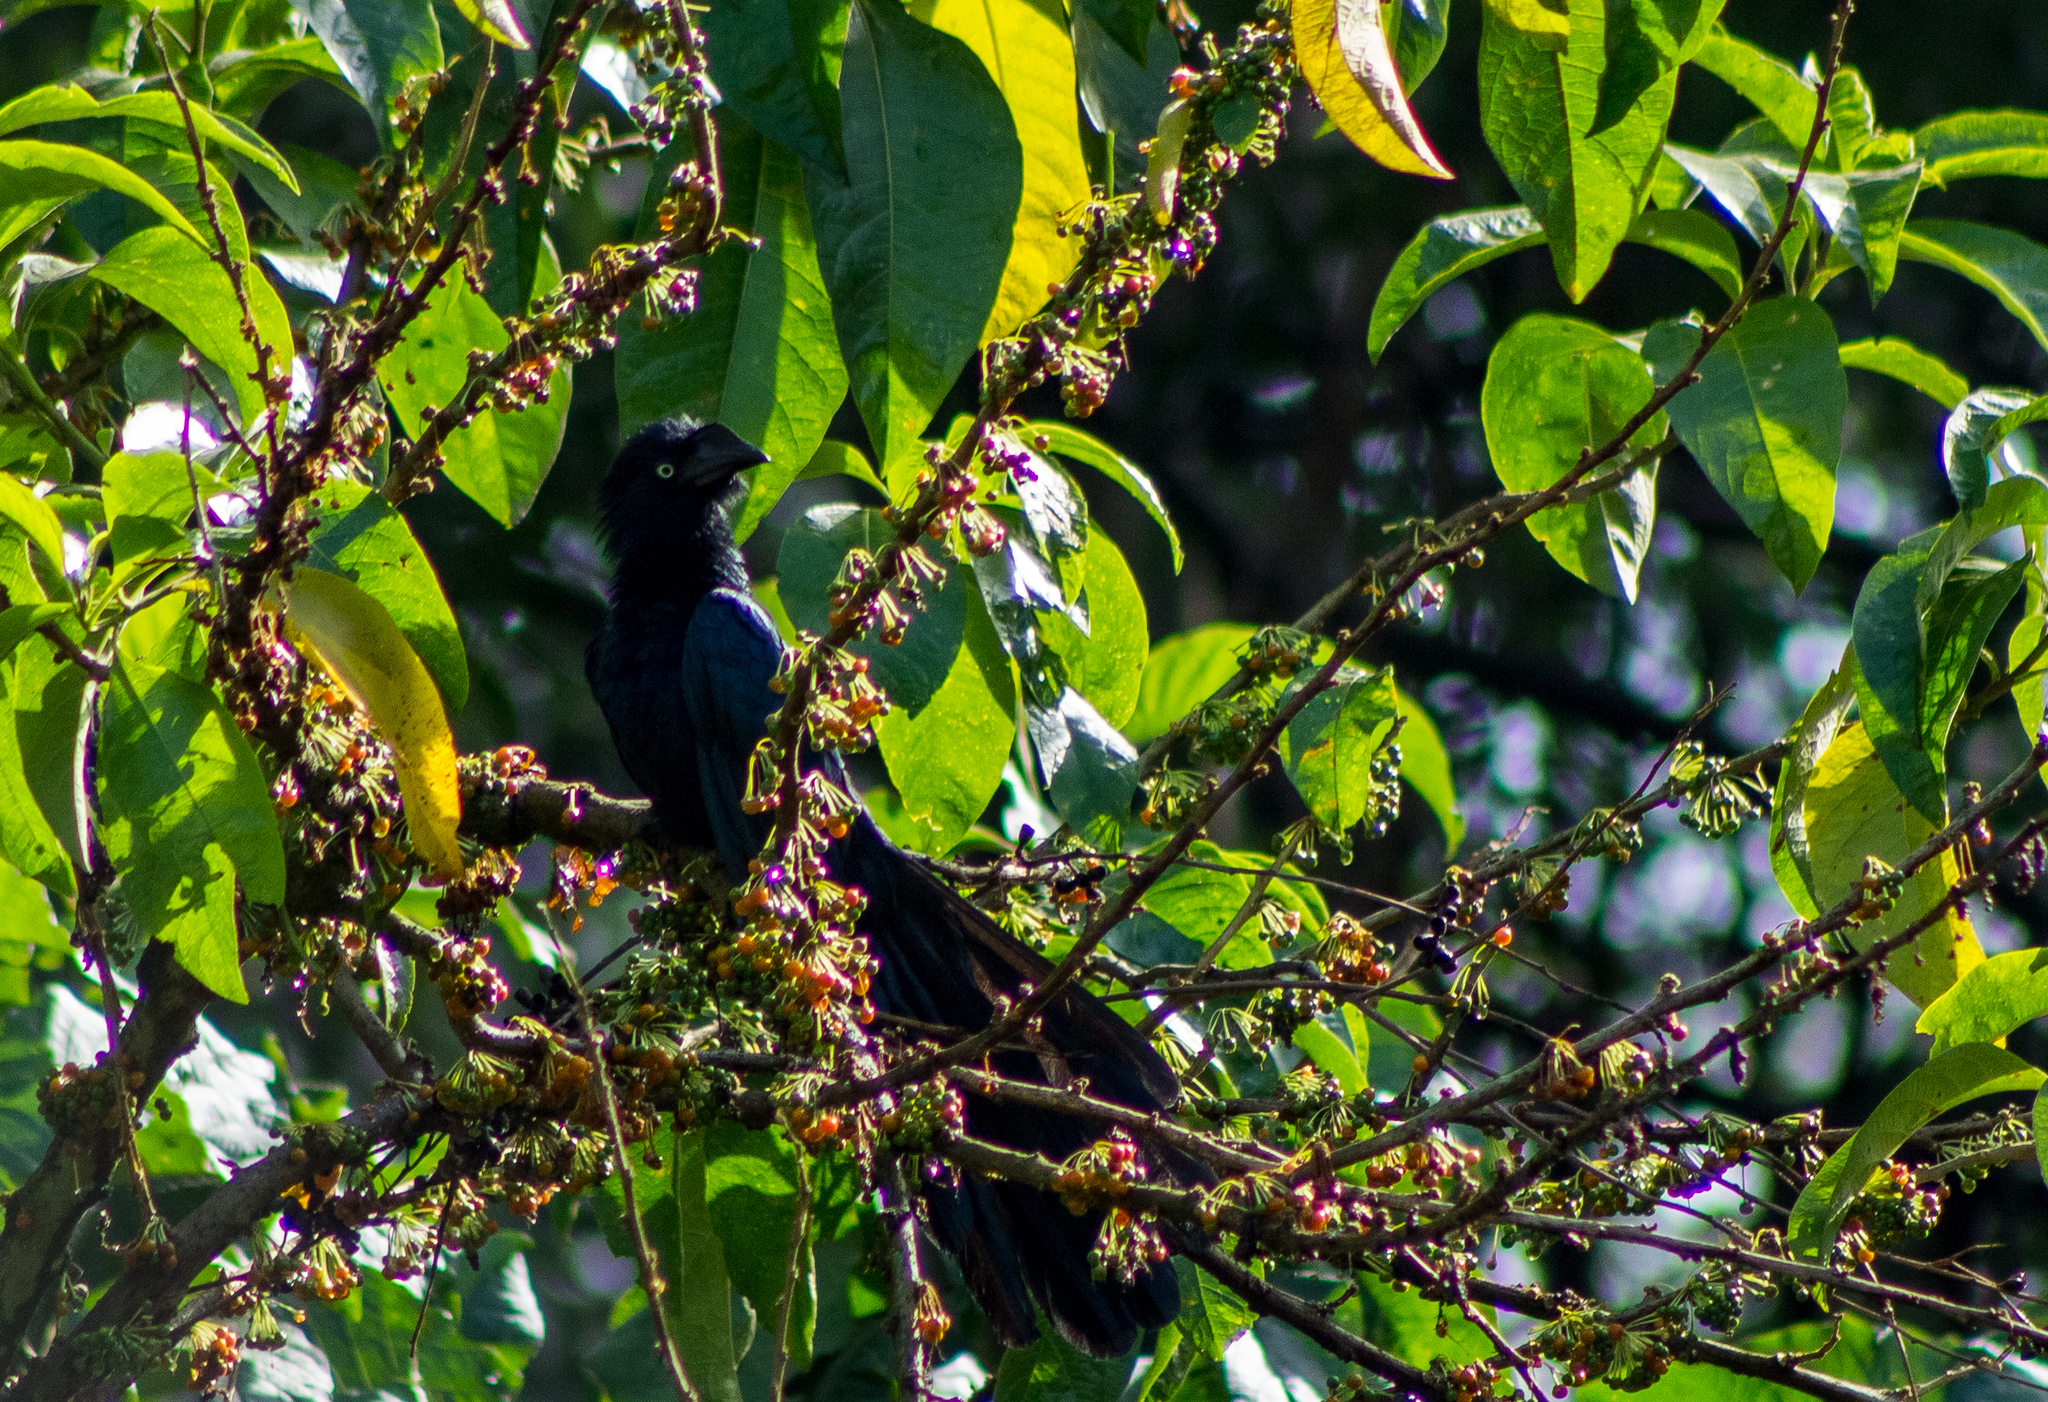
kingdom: Animalia
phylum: Chordata
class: Aves
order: Cuculiformes
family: Cuculidae
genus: Crotophaga
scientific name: Crotophaga major
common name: Greater ani
